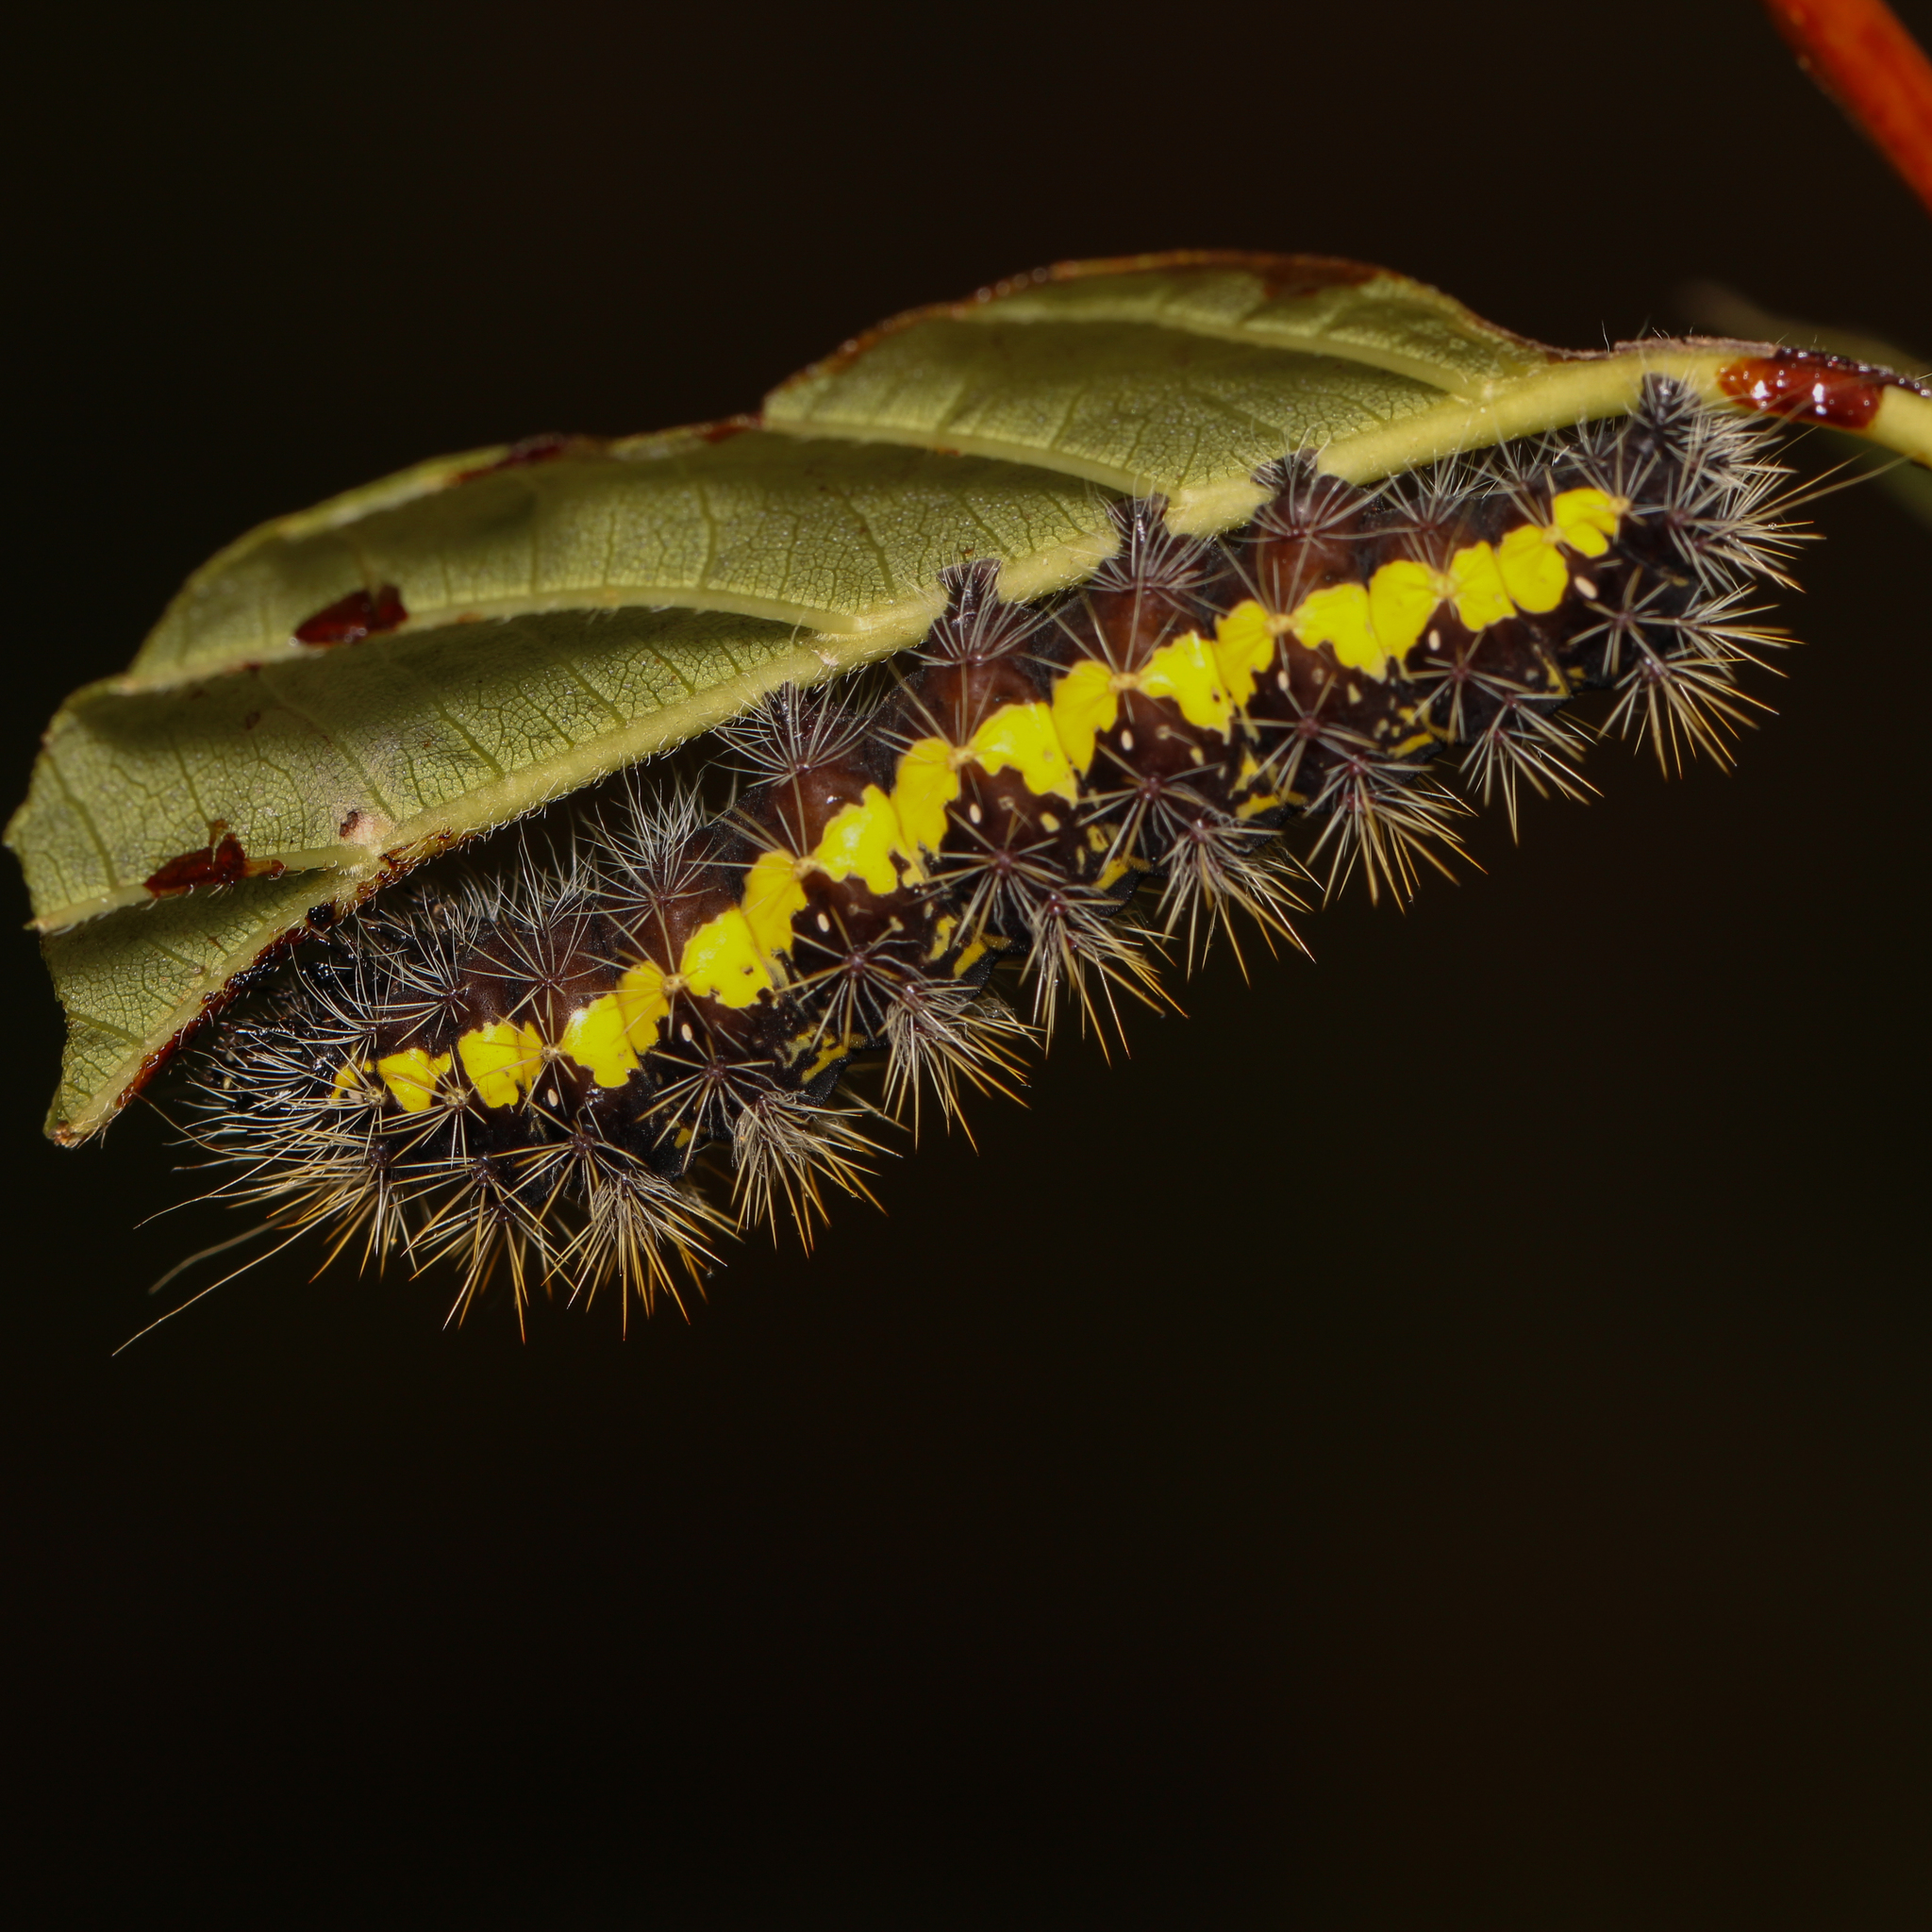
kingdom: Animalia
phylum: Arthropoda
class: Insecta
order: Lepidoptera
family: Noctuidae
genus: Acronicta
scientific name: Acronicta oblinita
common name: Smeared dagger
